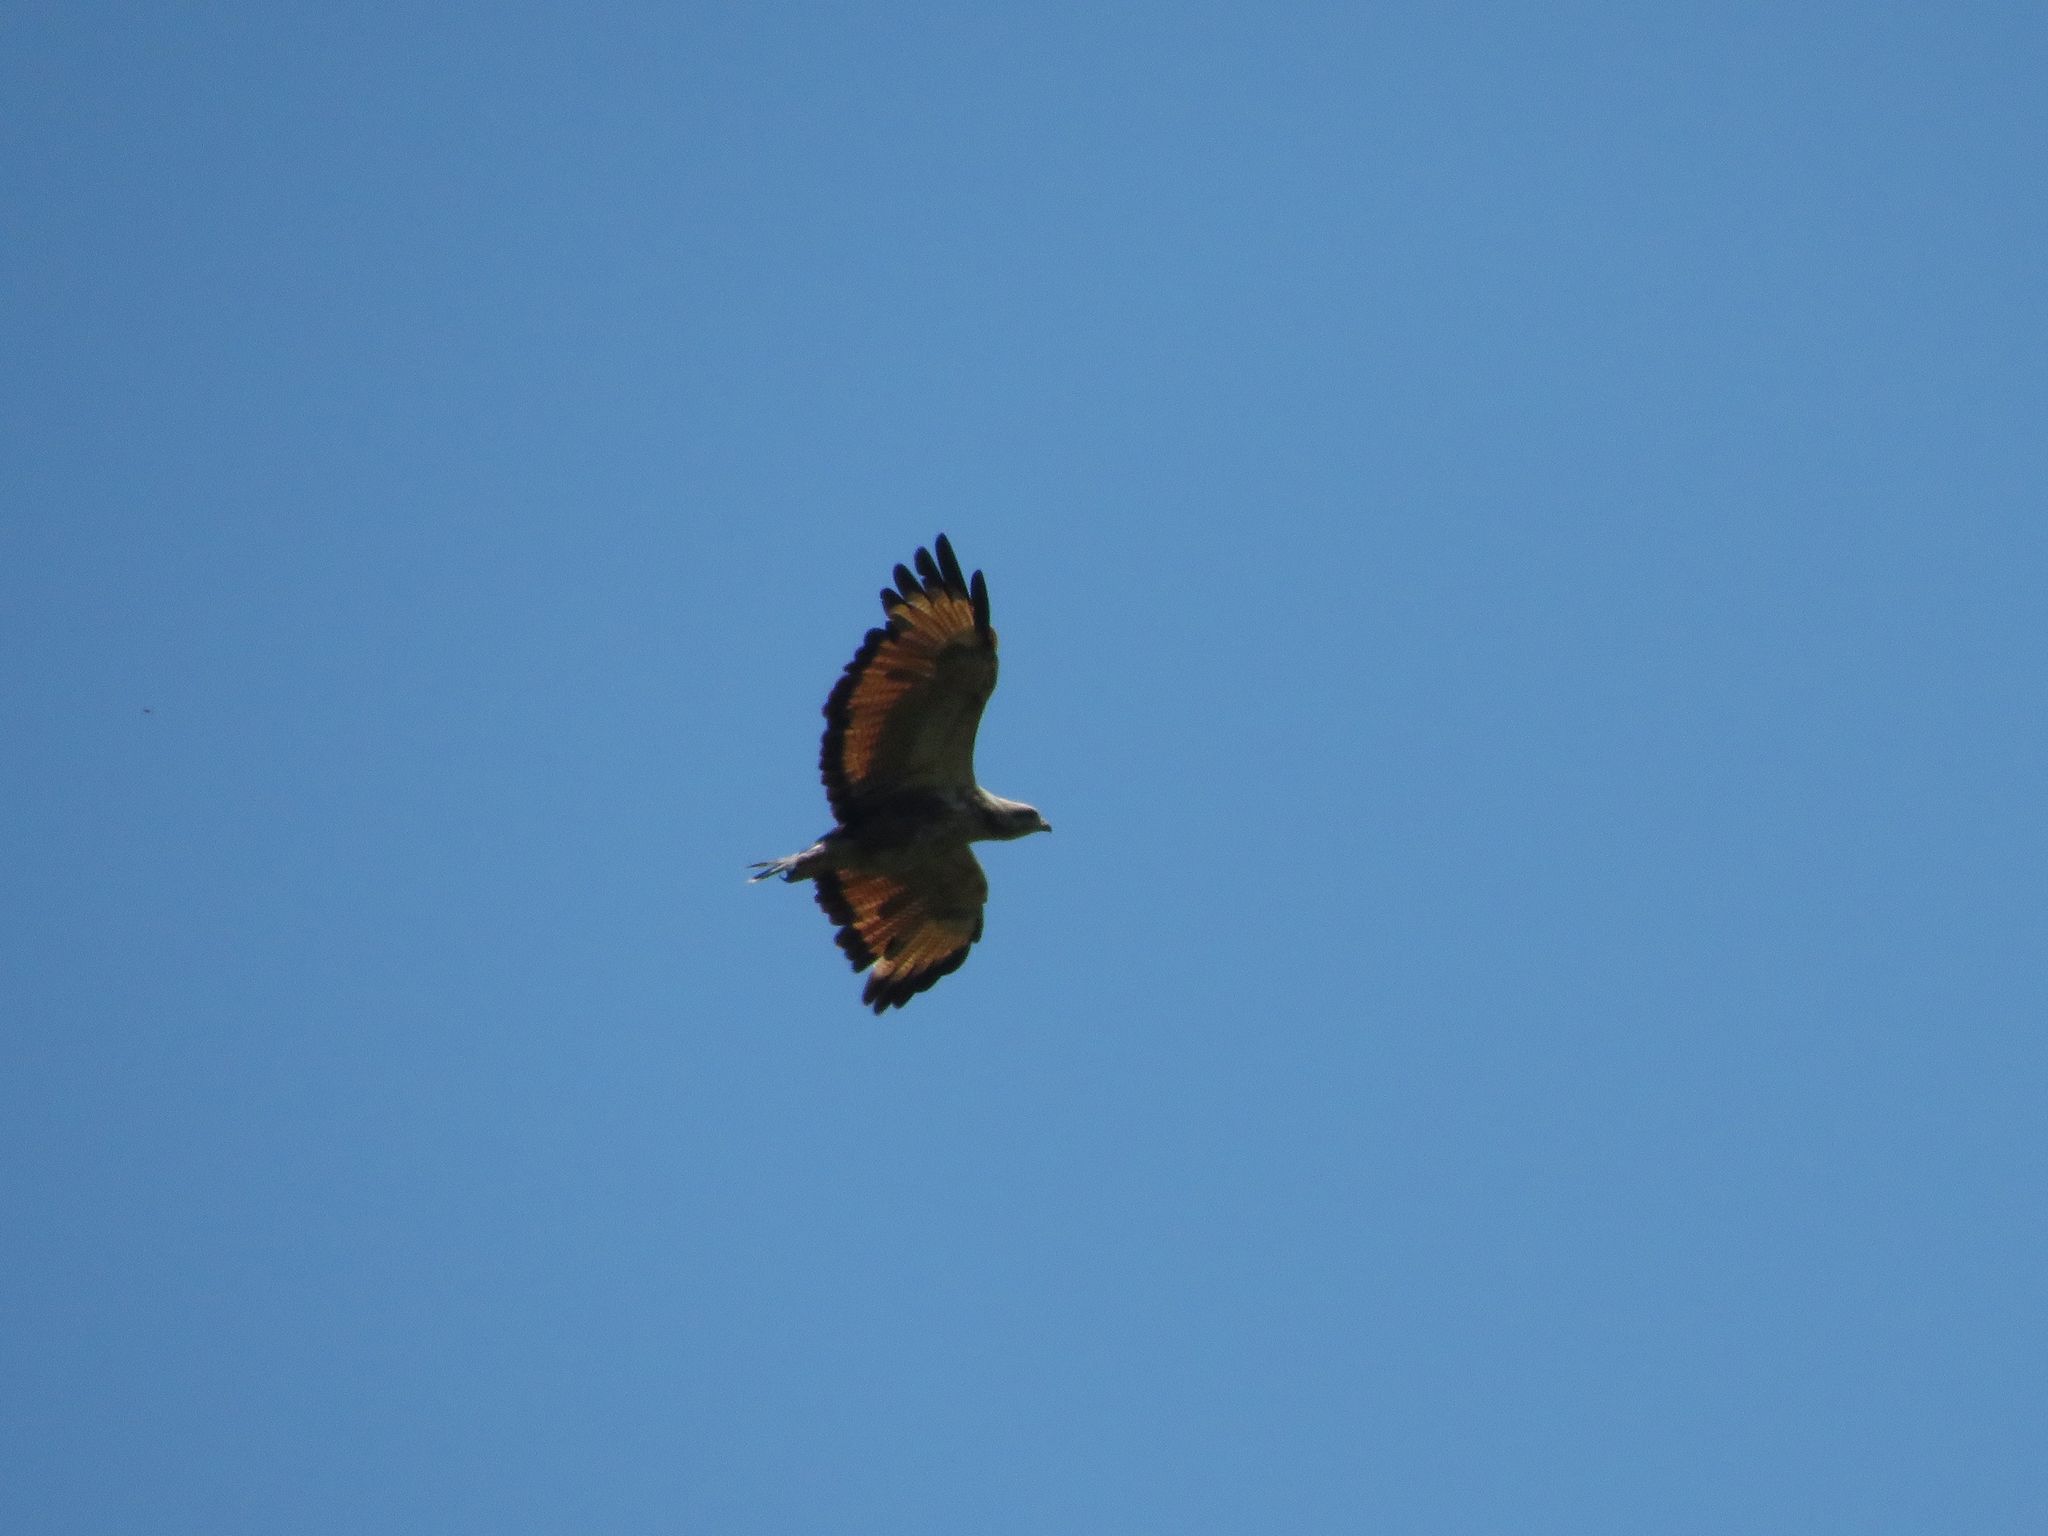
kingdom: Animalia
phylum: Chordata
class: Aves
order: Accipitriformes
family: Accipitridae
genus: Buteogallus
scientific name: Buteogallus meridionalis
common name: Savanna hawk
